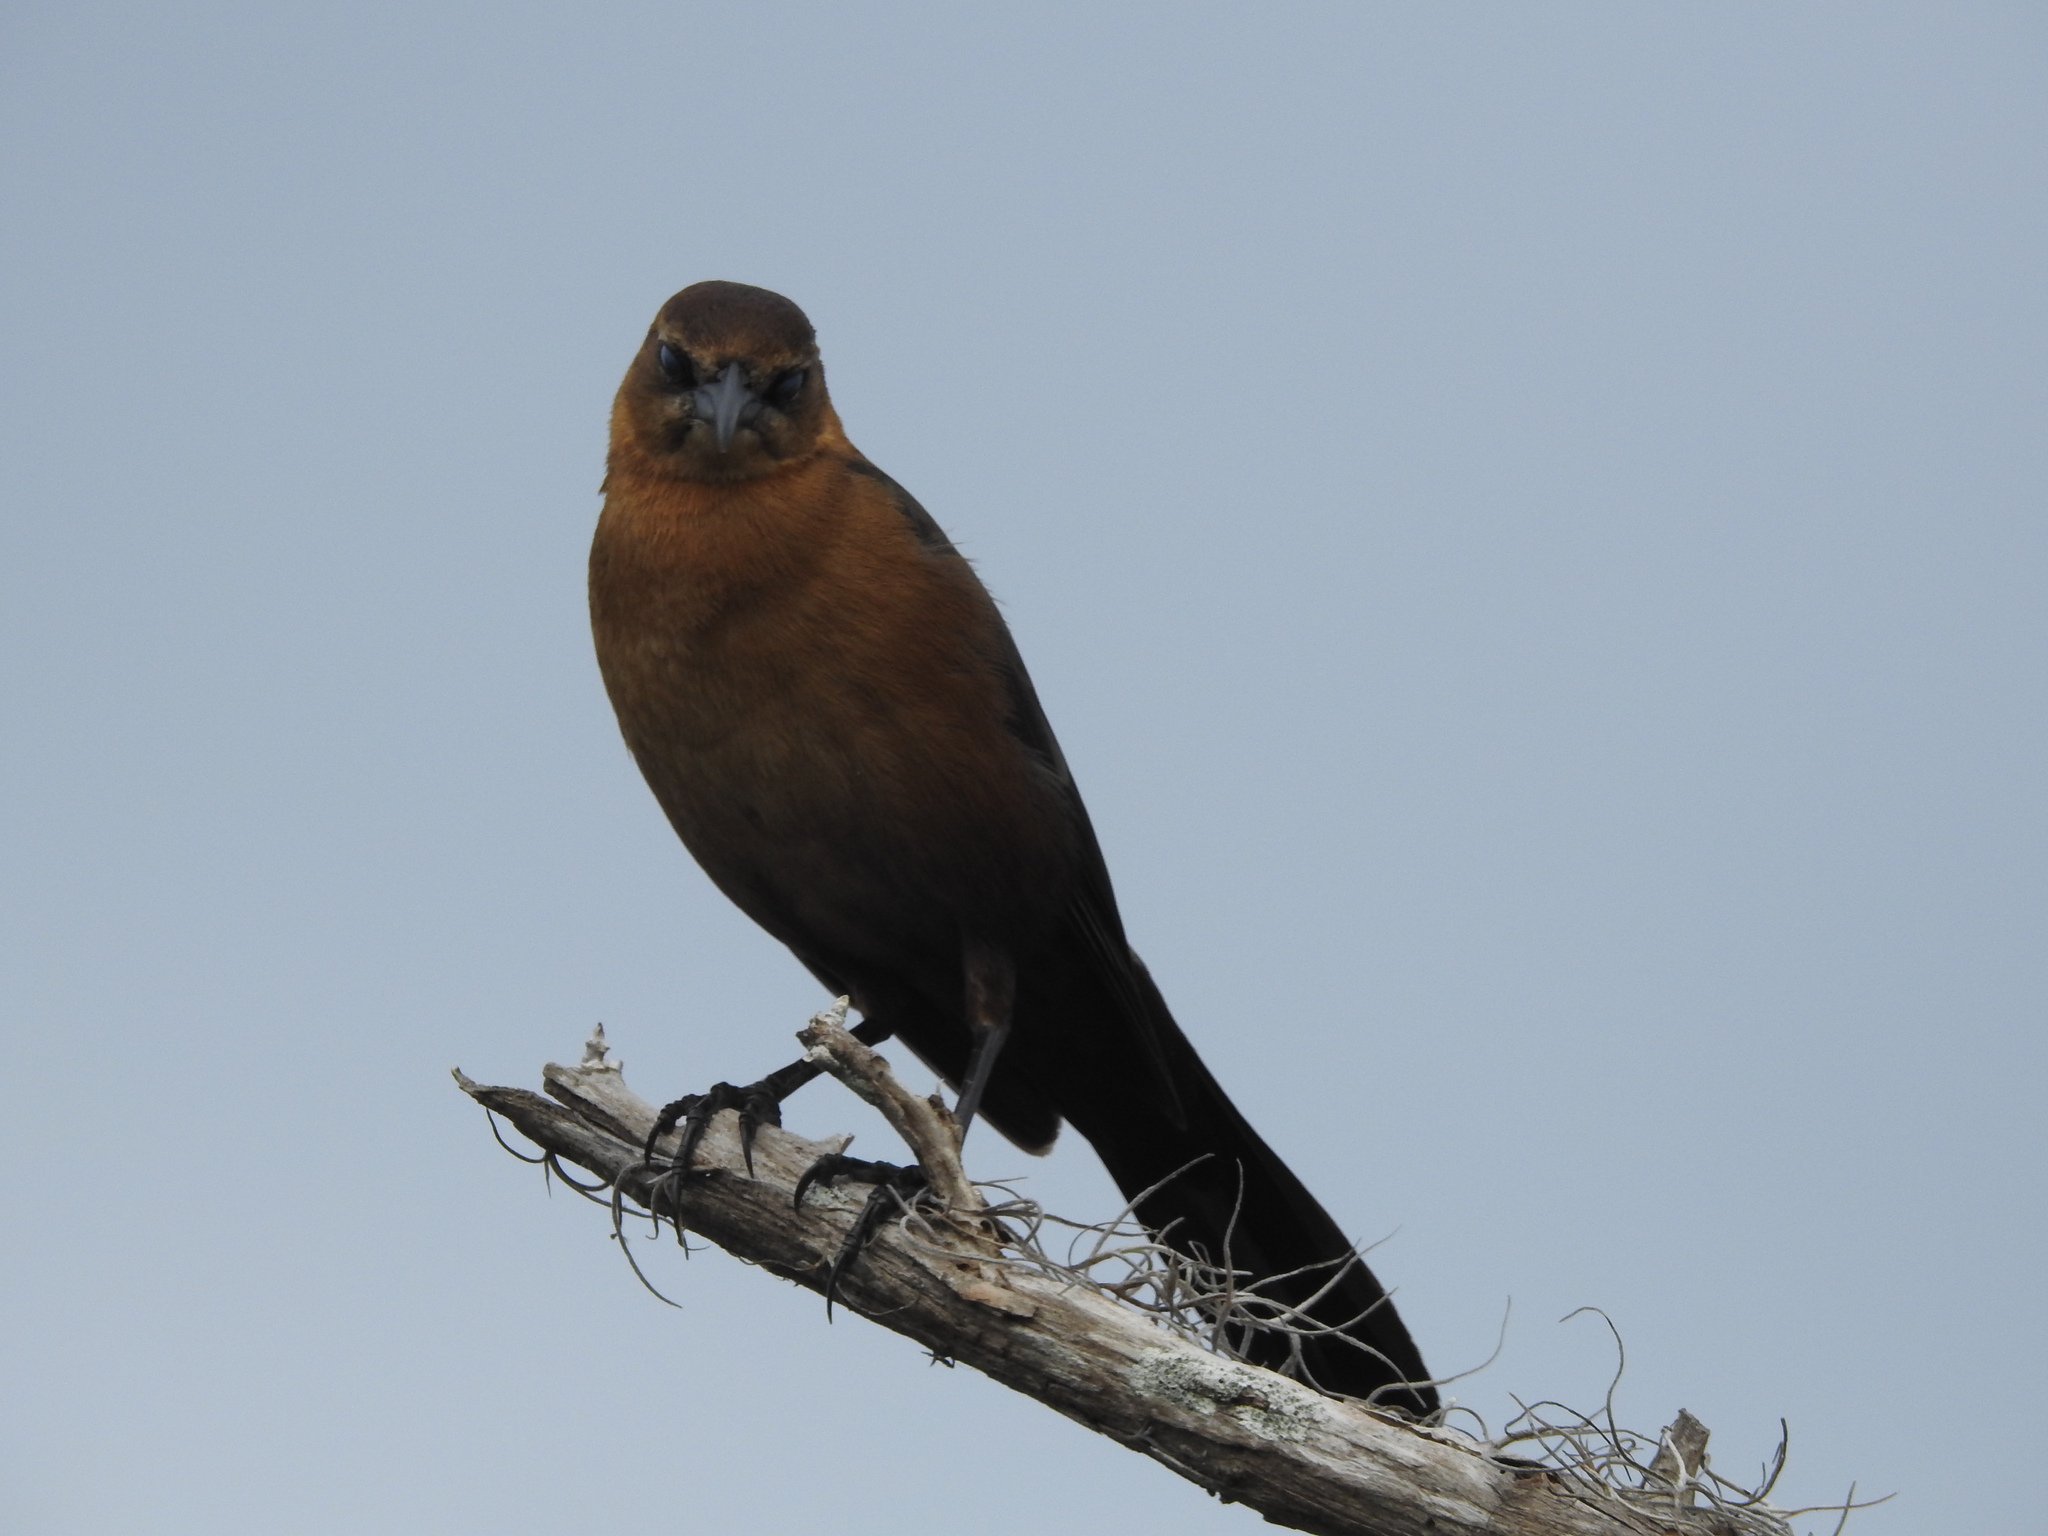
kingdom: Animalia
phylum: Chordata
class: Aves
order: Passeriformes
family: Icteridae
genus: Quiscalus
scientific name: Quiscalus major
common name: Boat-tailed grackle
